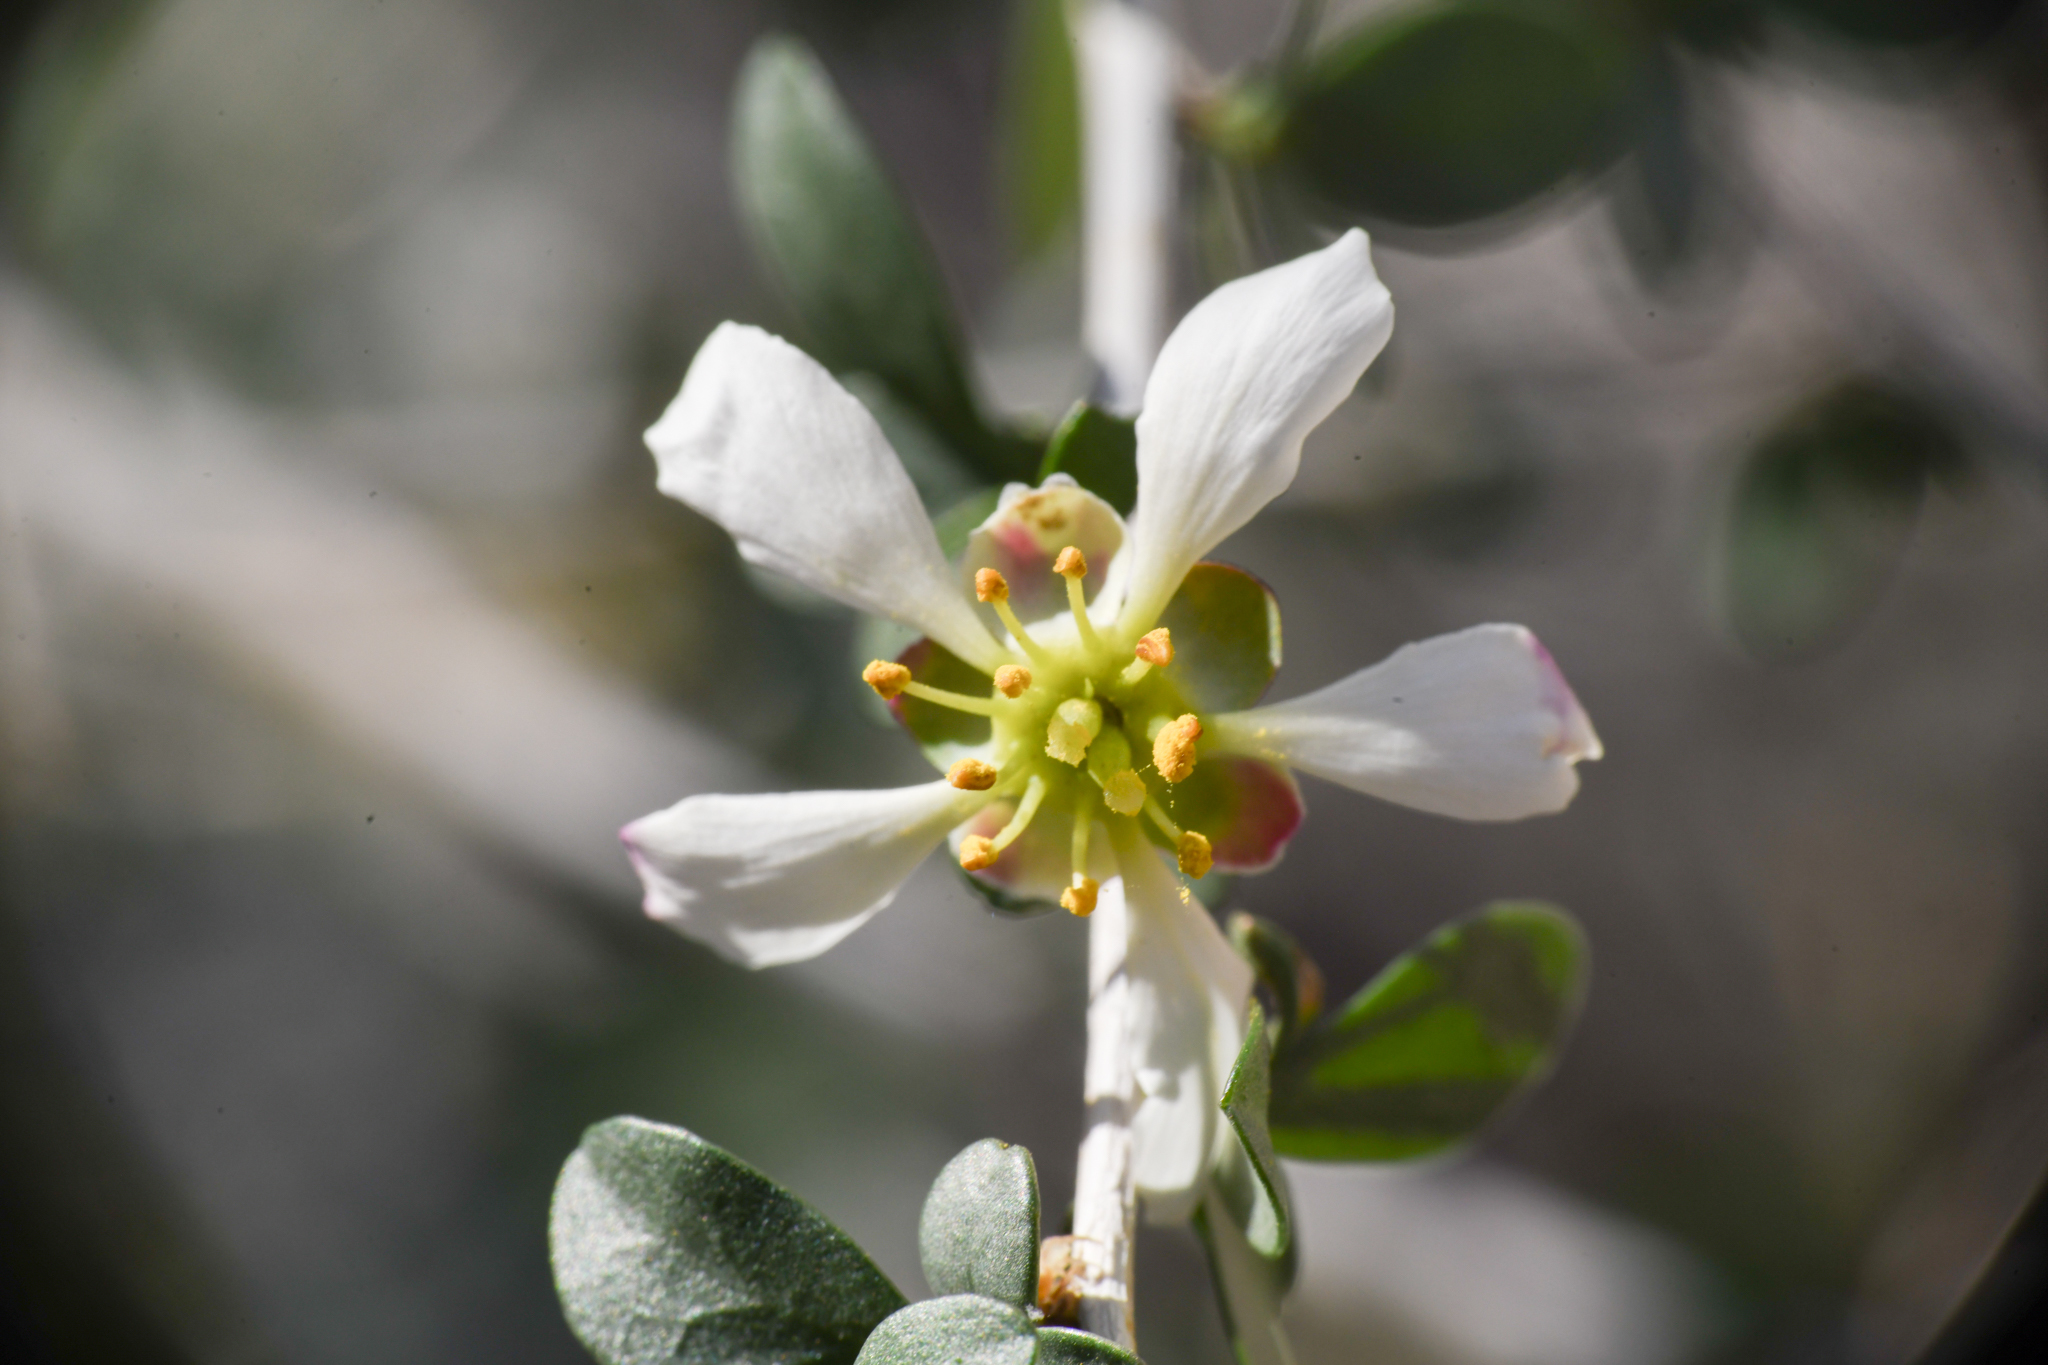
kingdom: Plantae
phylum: Tracheophyta
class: Magnoliopsida
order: Crossosomatales
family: Crossosomataceae
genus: Crossosoma
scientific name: Crossosoma bigelovii
